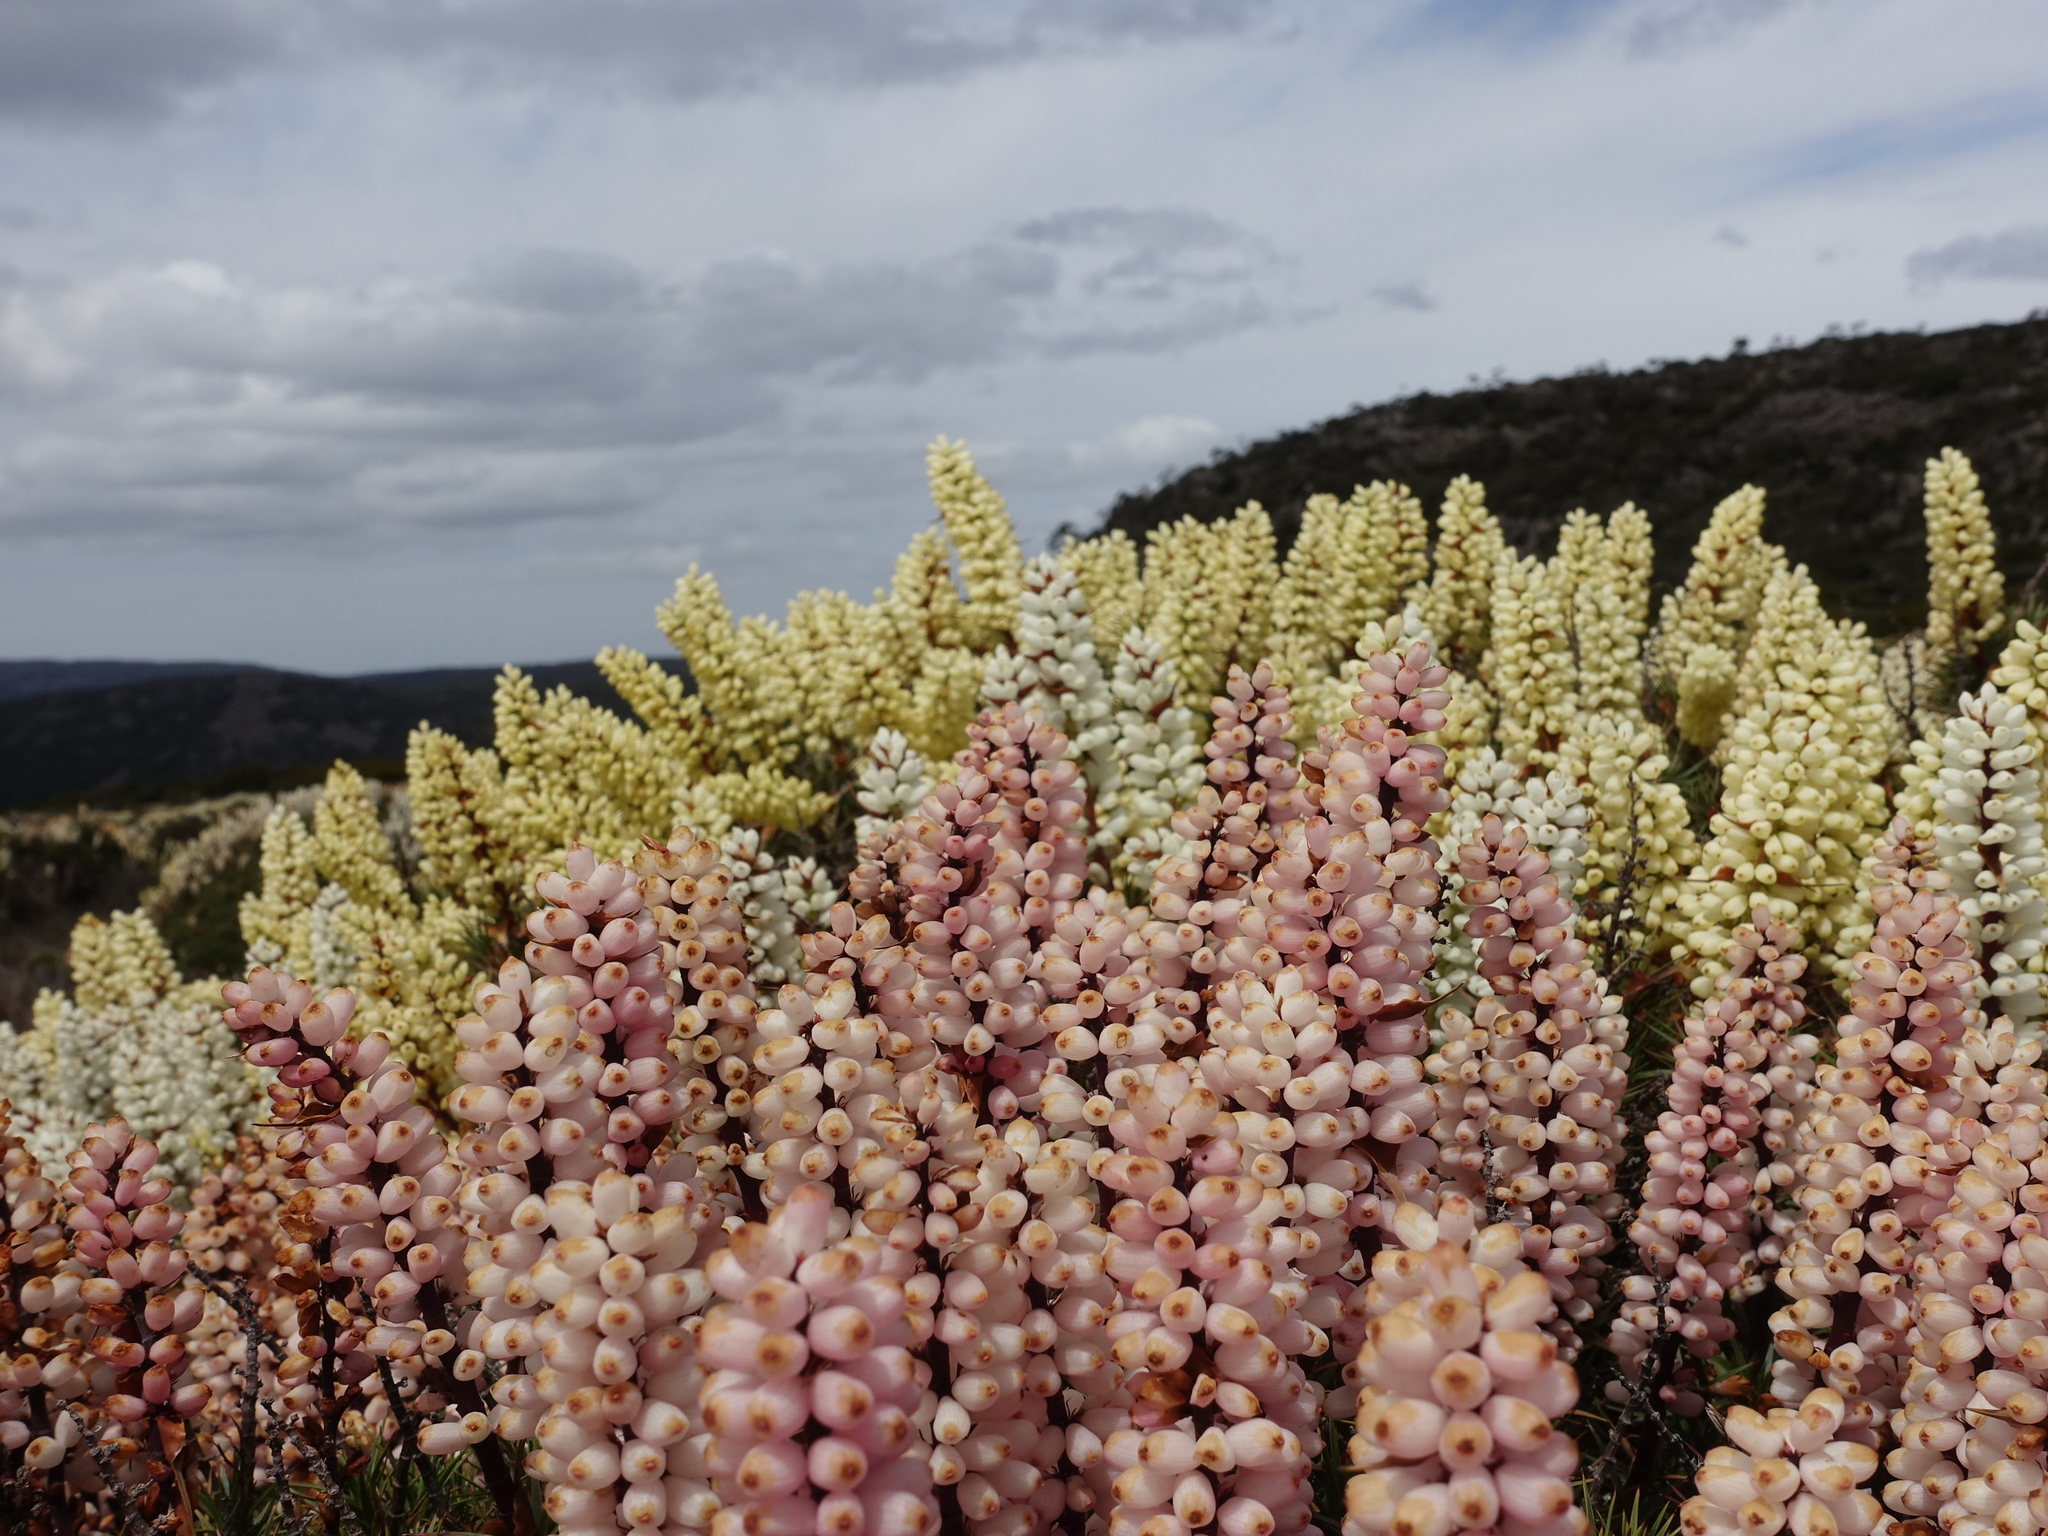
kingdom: Plantae
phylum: Tracheophyta
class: Magnoliopsida
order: Ericales
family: Ericaceae
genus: Dracophyllum
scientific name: Dracophyllum persistentifolium
